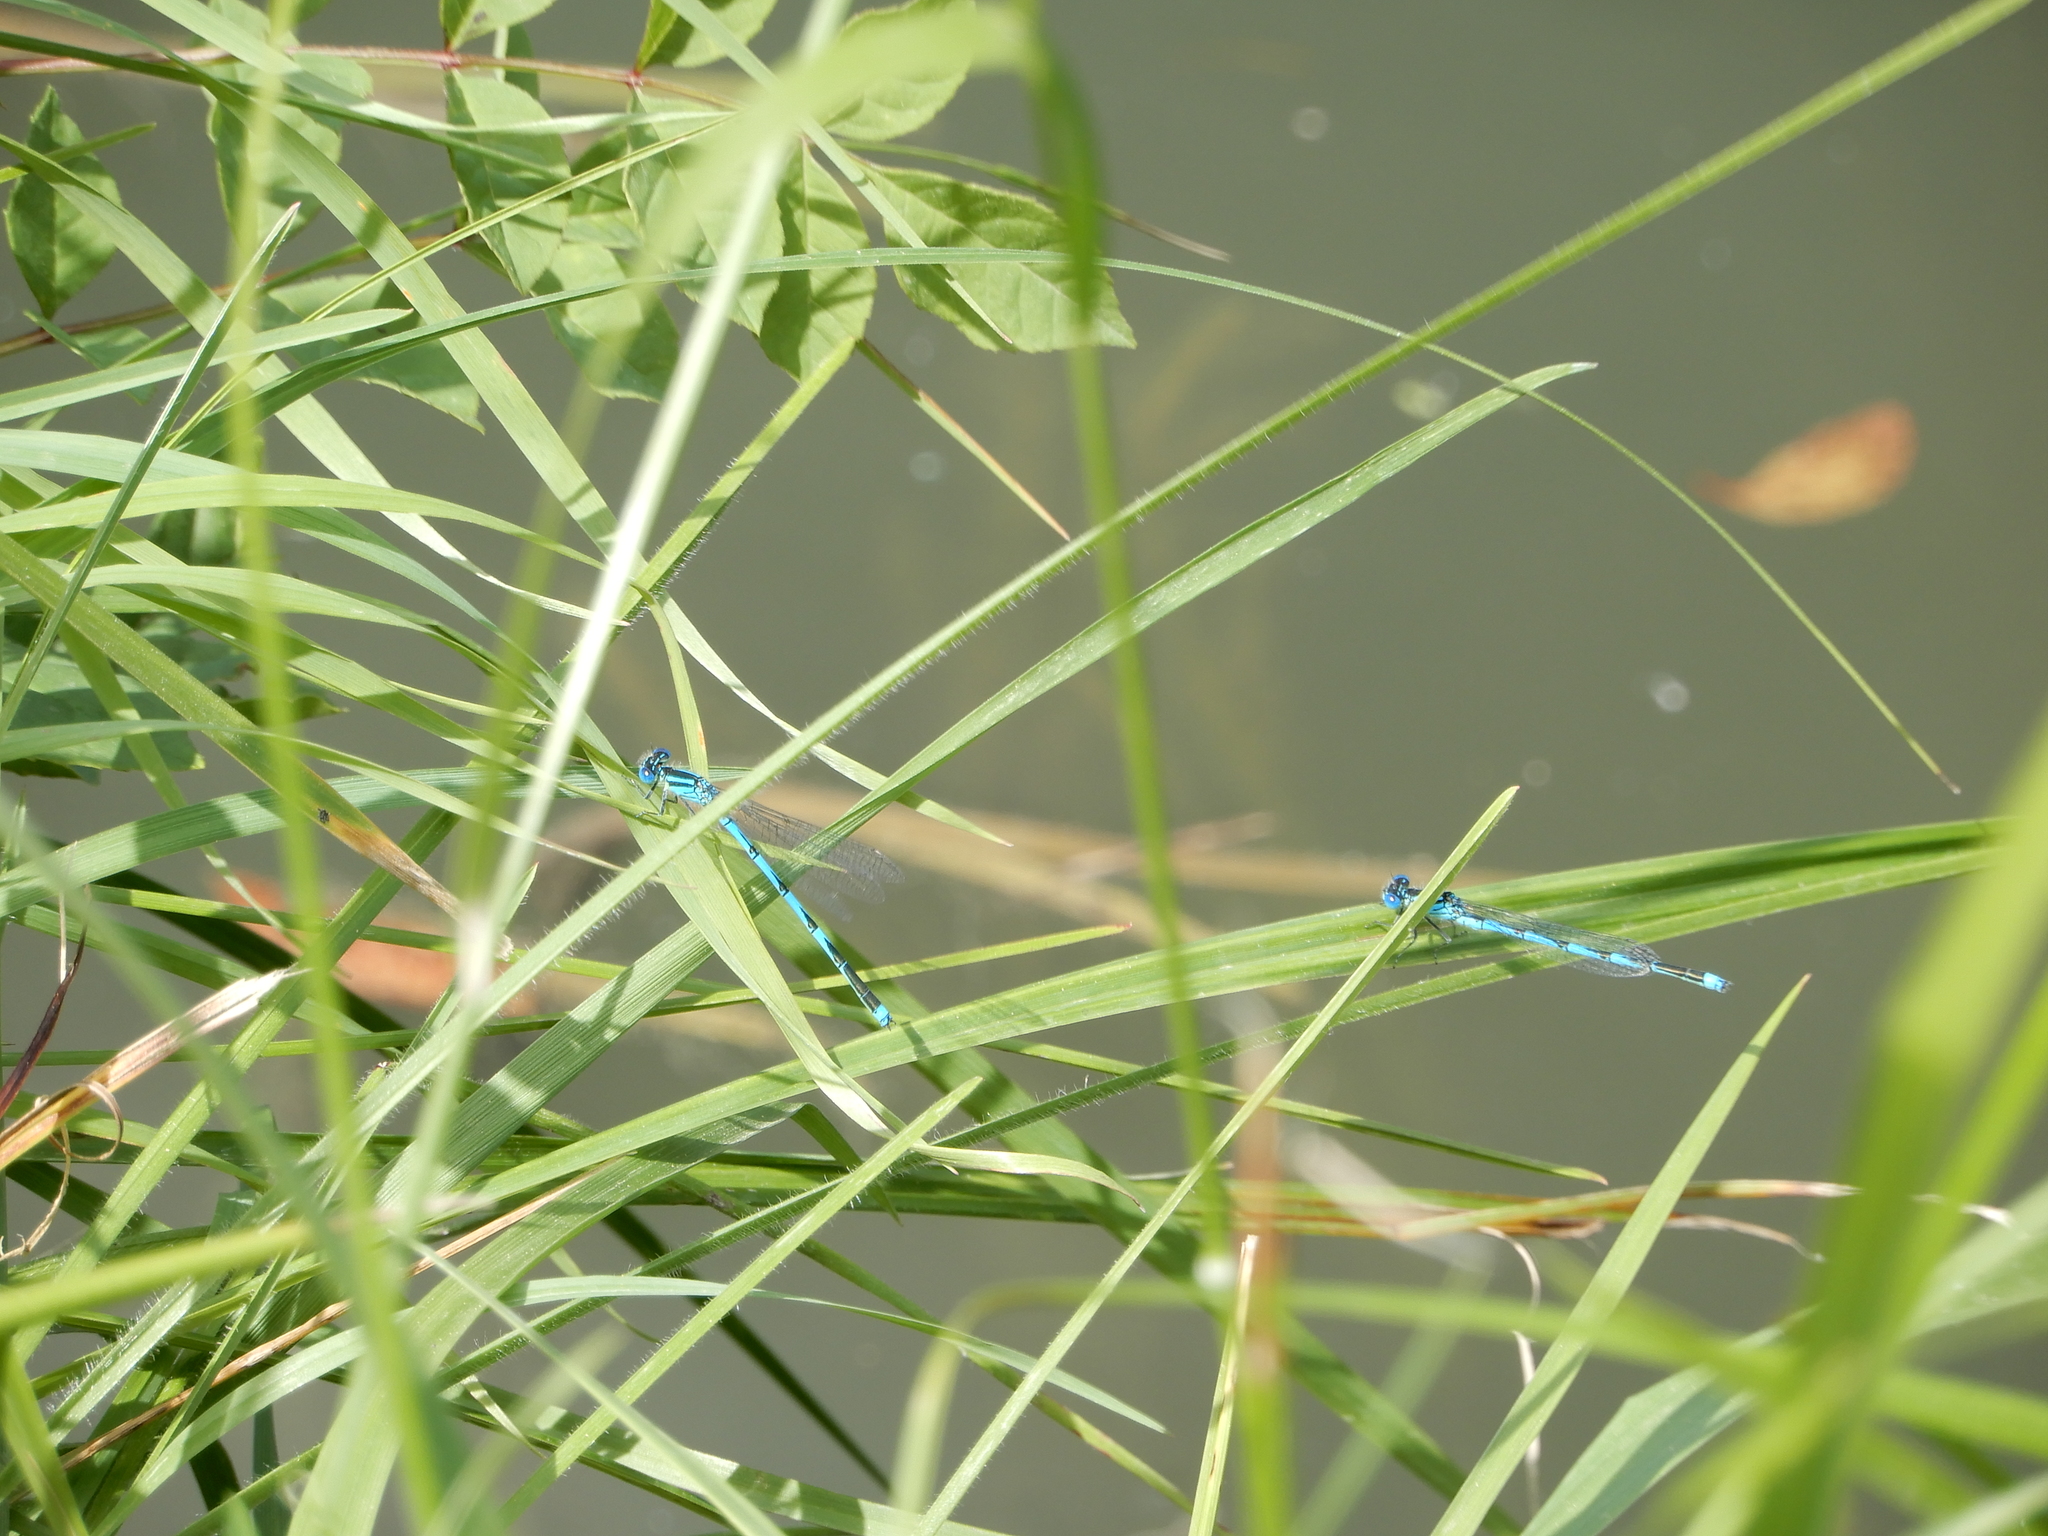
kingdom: Animalia
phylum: Arthropoda
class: Insecta
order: Odonata
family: Coenagrionidae
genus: Erythromma
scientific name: Erythromma lindenii
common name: Blue-eye
